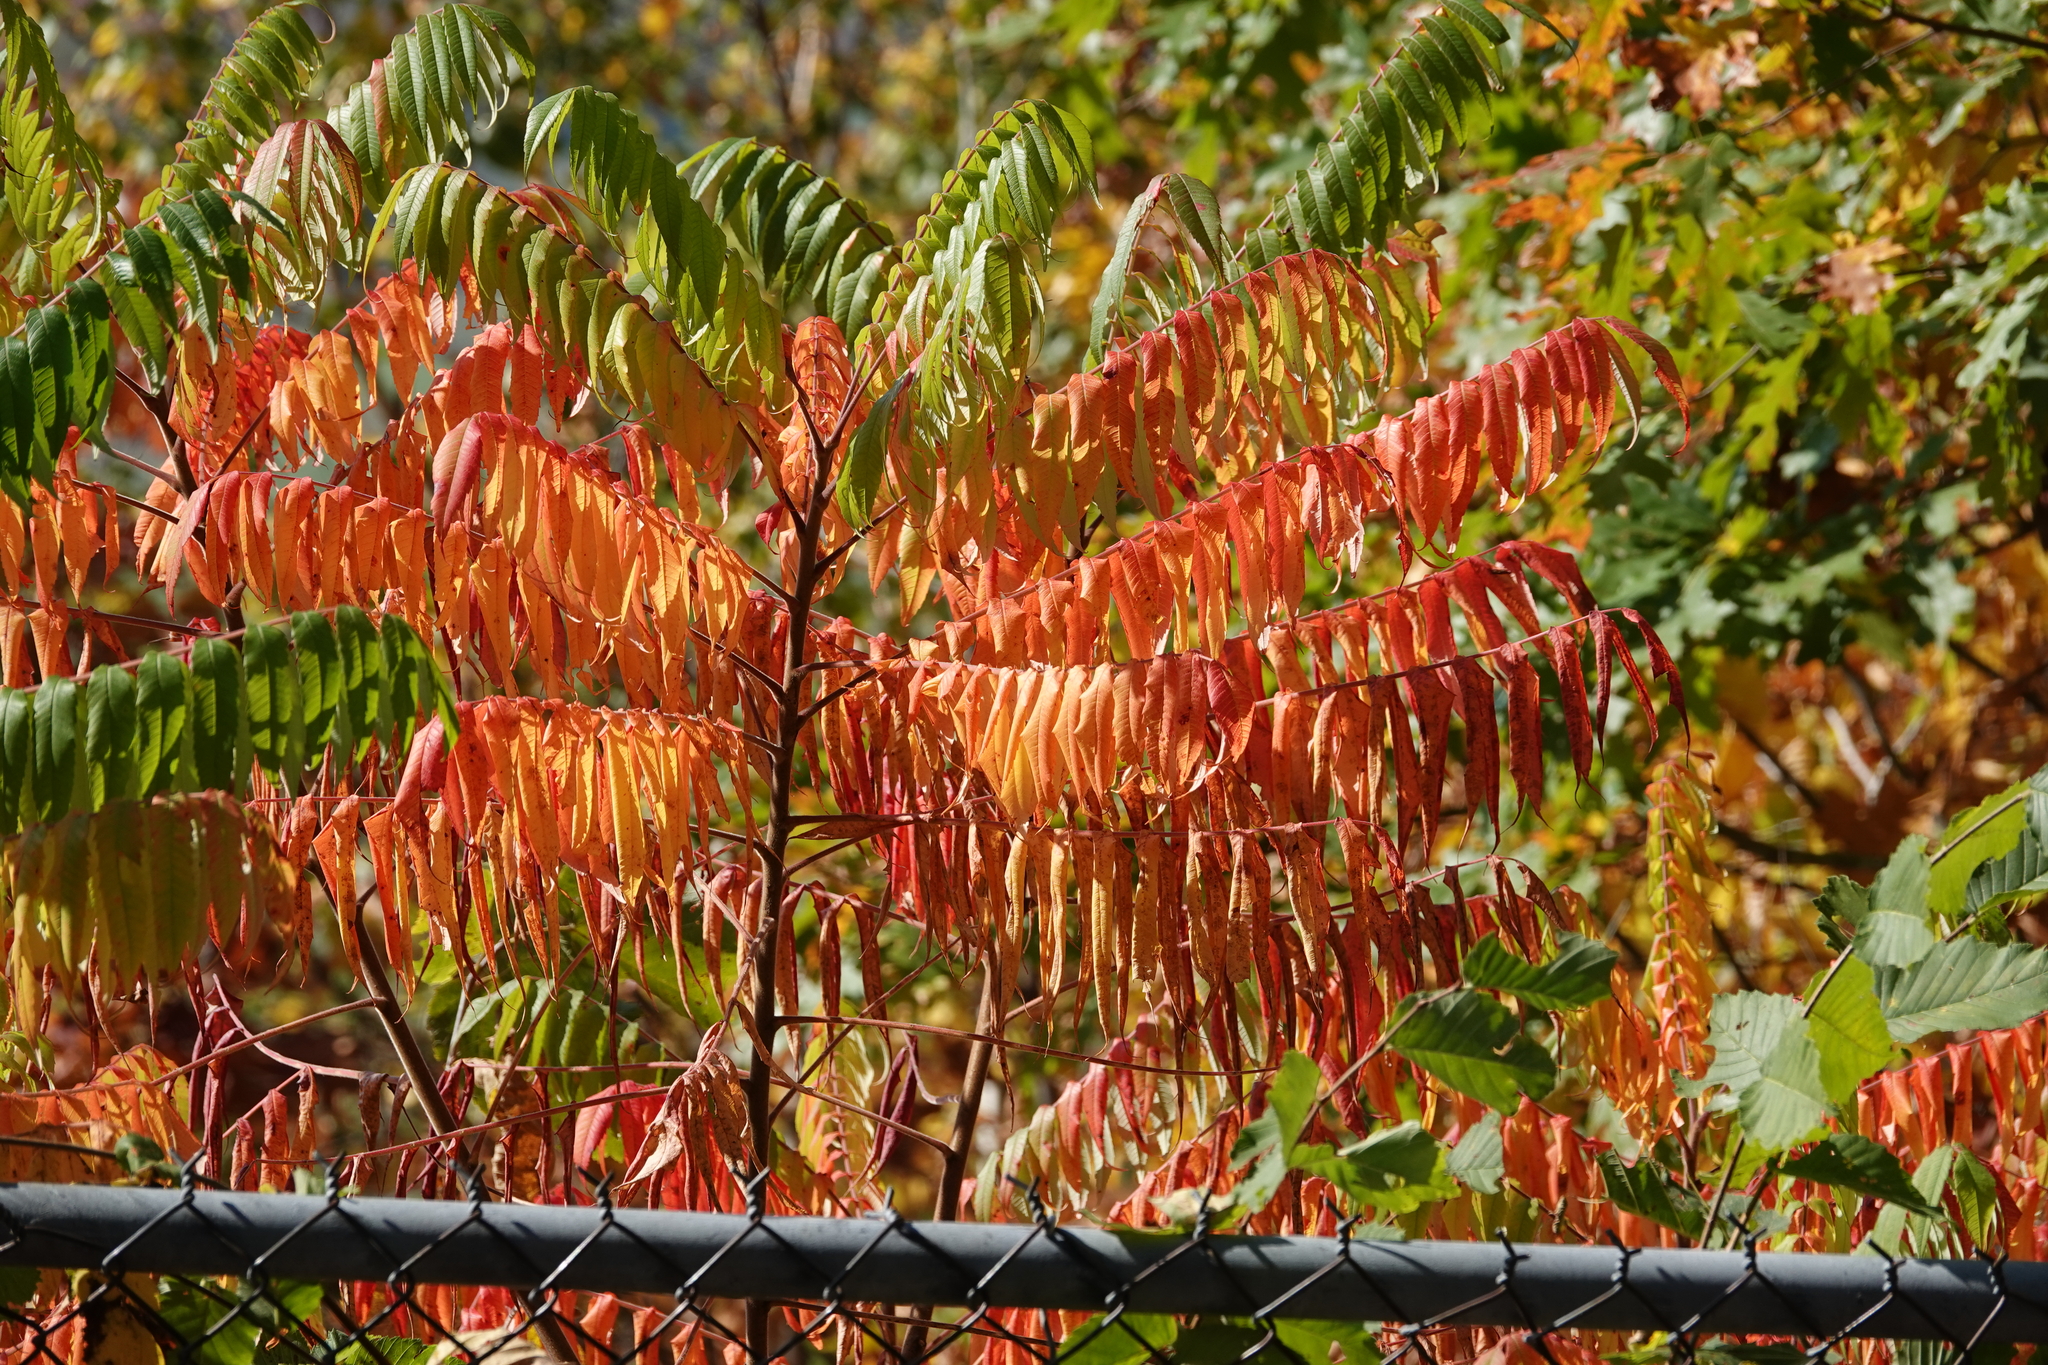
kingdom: Plantae
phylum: Tracheophyta
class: Magnoliopsida
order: Sapindales
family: Anacardiaceae
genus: Rhus
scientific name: Rhus typhina
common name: Staghorn sumac
